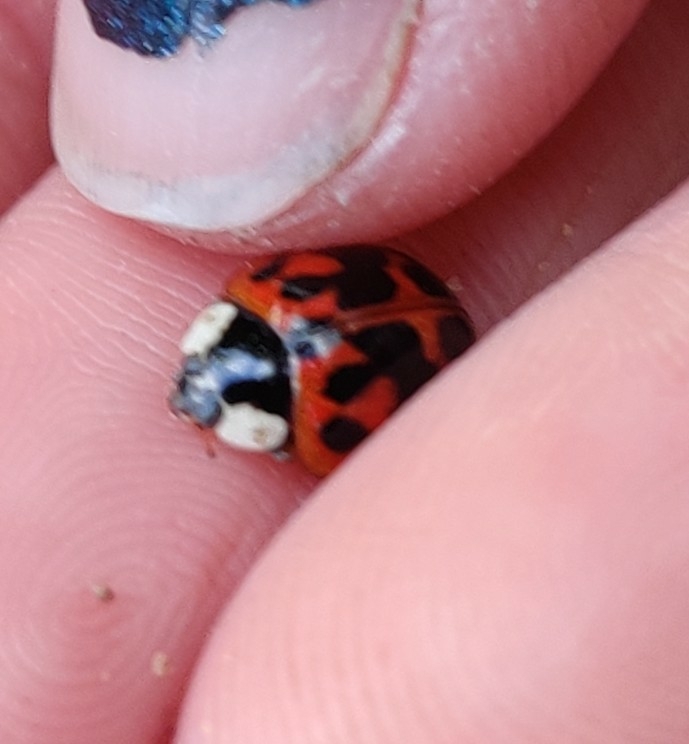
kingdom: Animalia
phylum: Arthropoda
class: Insecta
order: Coleoptera
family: Coccinellidae
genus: Harmonia
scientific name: Harmonia axyridis
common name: Harlequin ladybird
